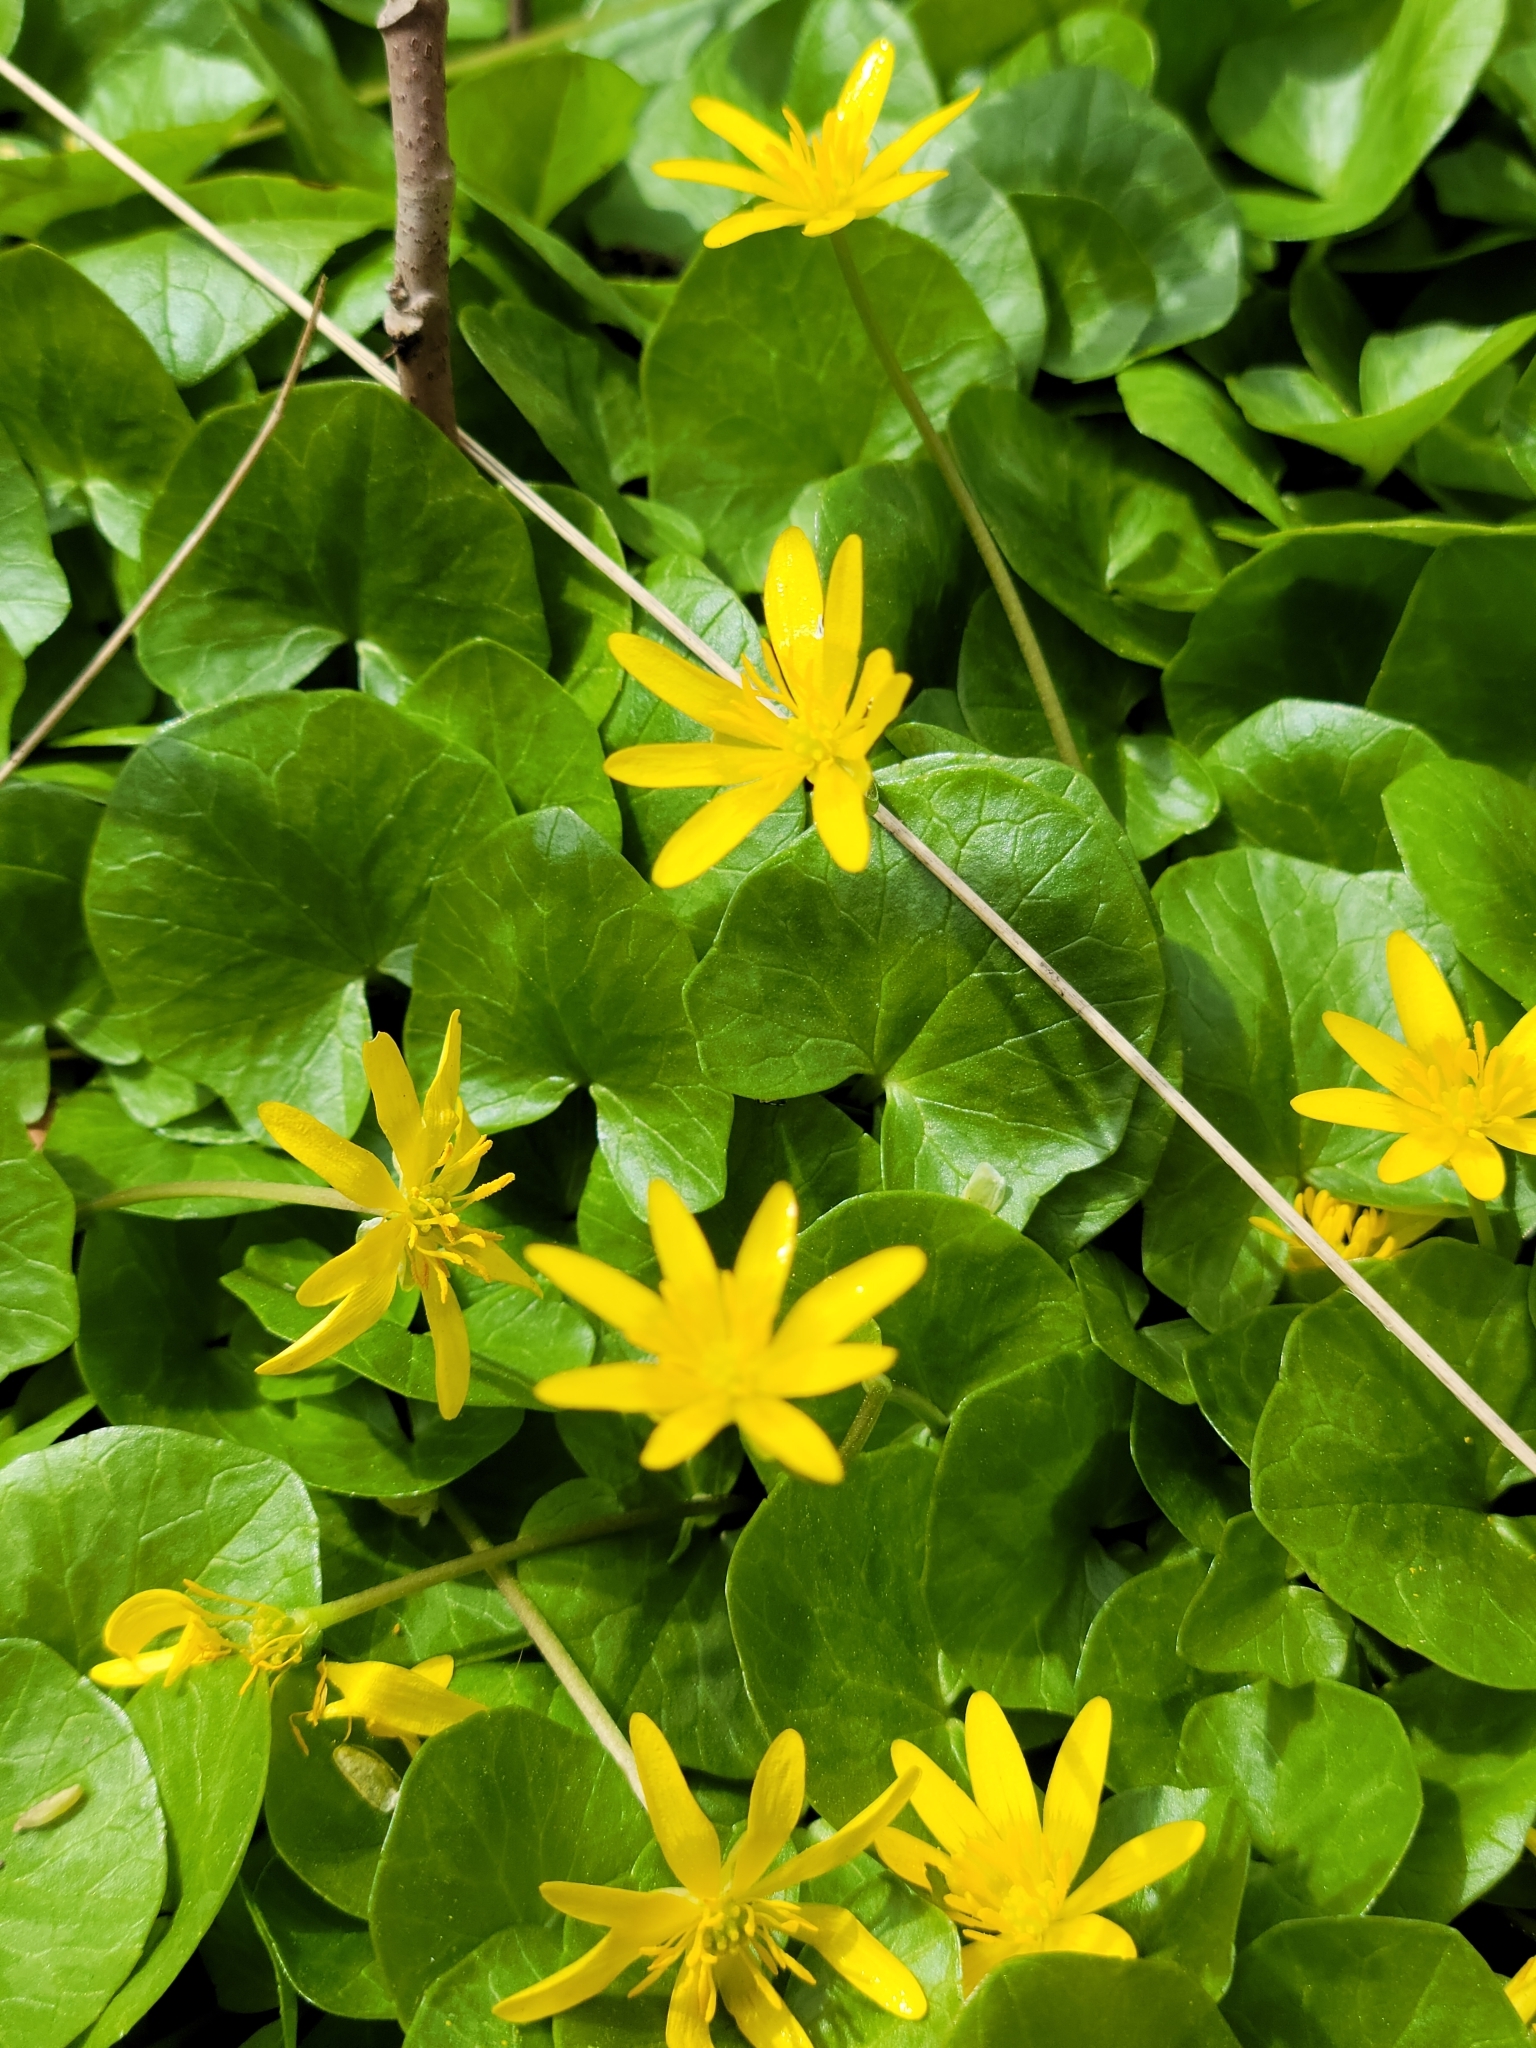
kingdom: Plantae
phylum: Tracheophyta
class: Magnoliopsida
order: Ranunculales
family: Ranunculaceae
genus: Ficaria
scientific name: Ficaria verna
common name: Lesser celandine
